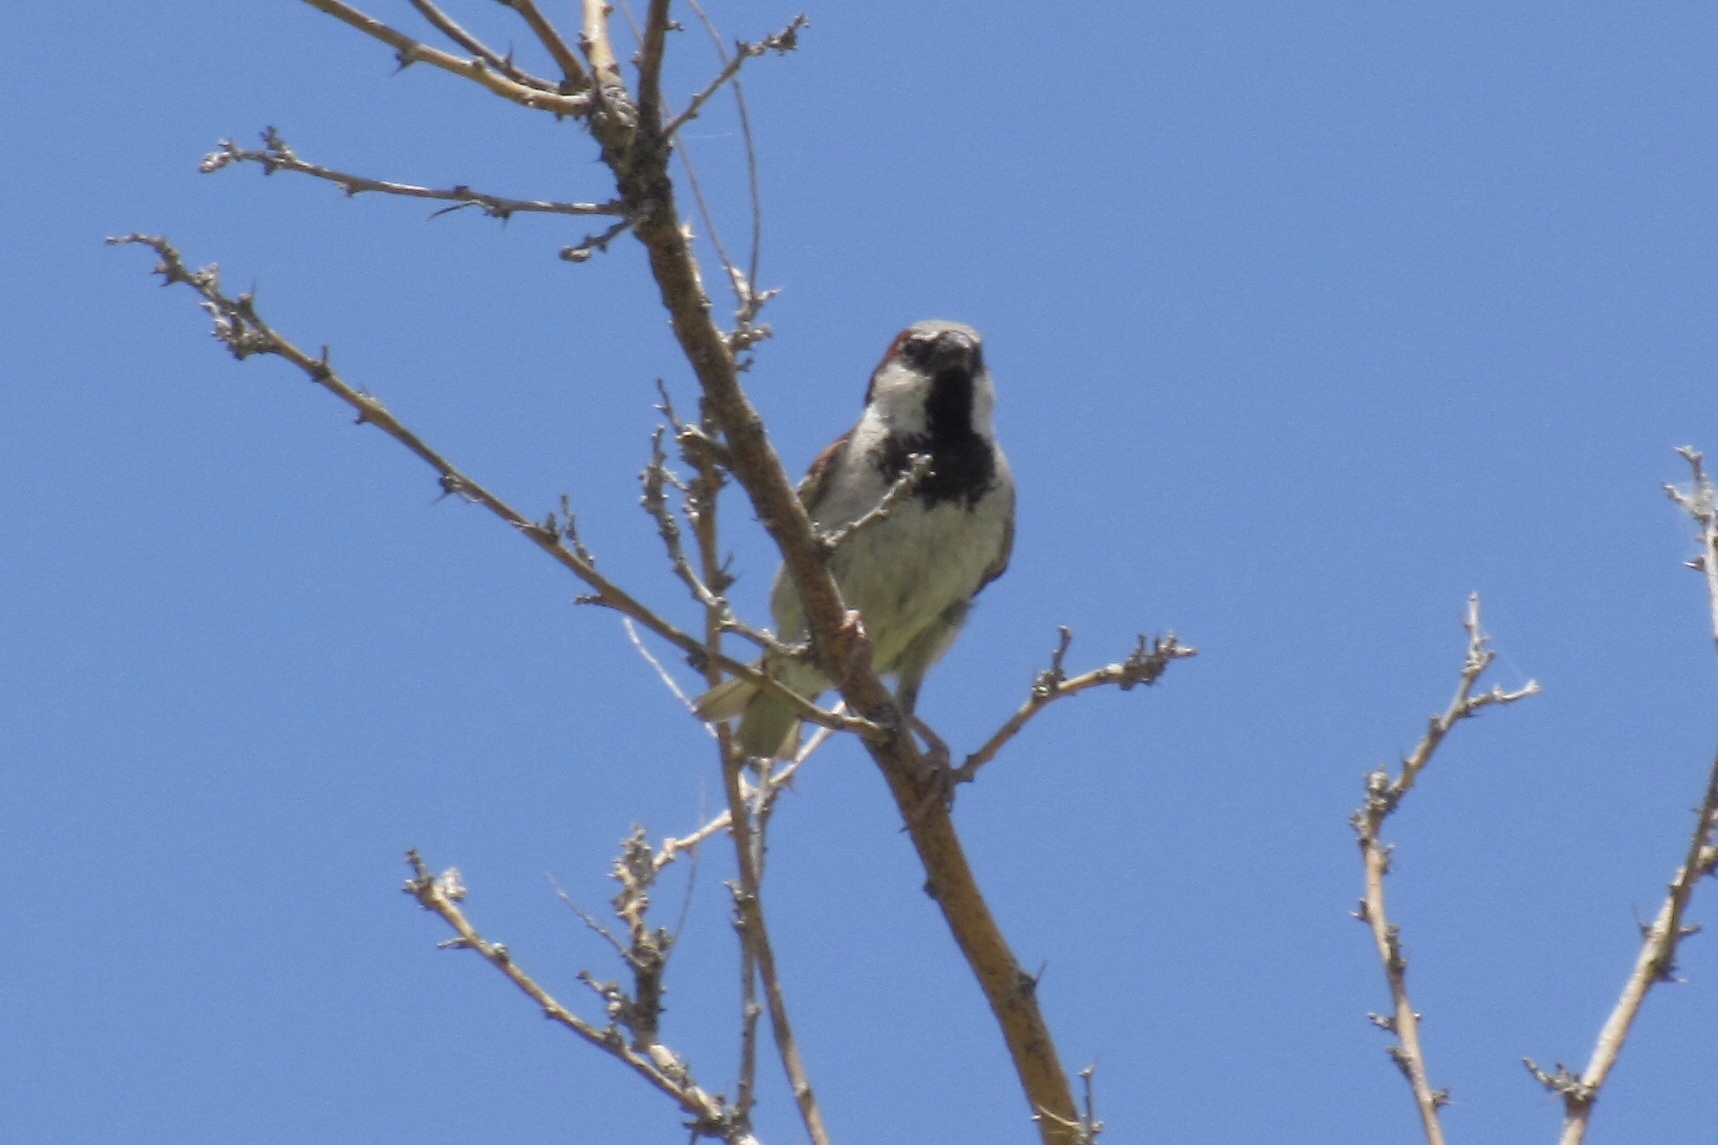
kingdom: Animalia
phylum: Chordata
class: Aves
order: Passeriformes
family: Passeridae
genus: Passer
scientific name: Passer domesticus
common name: House sparrow
